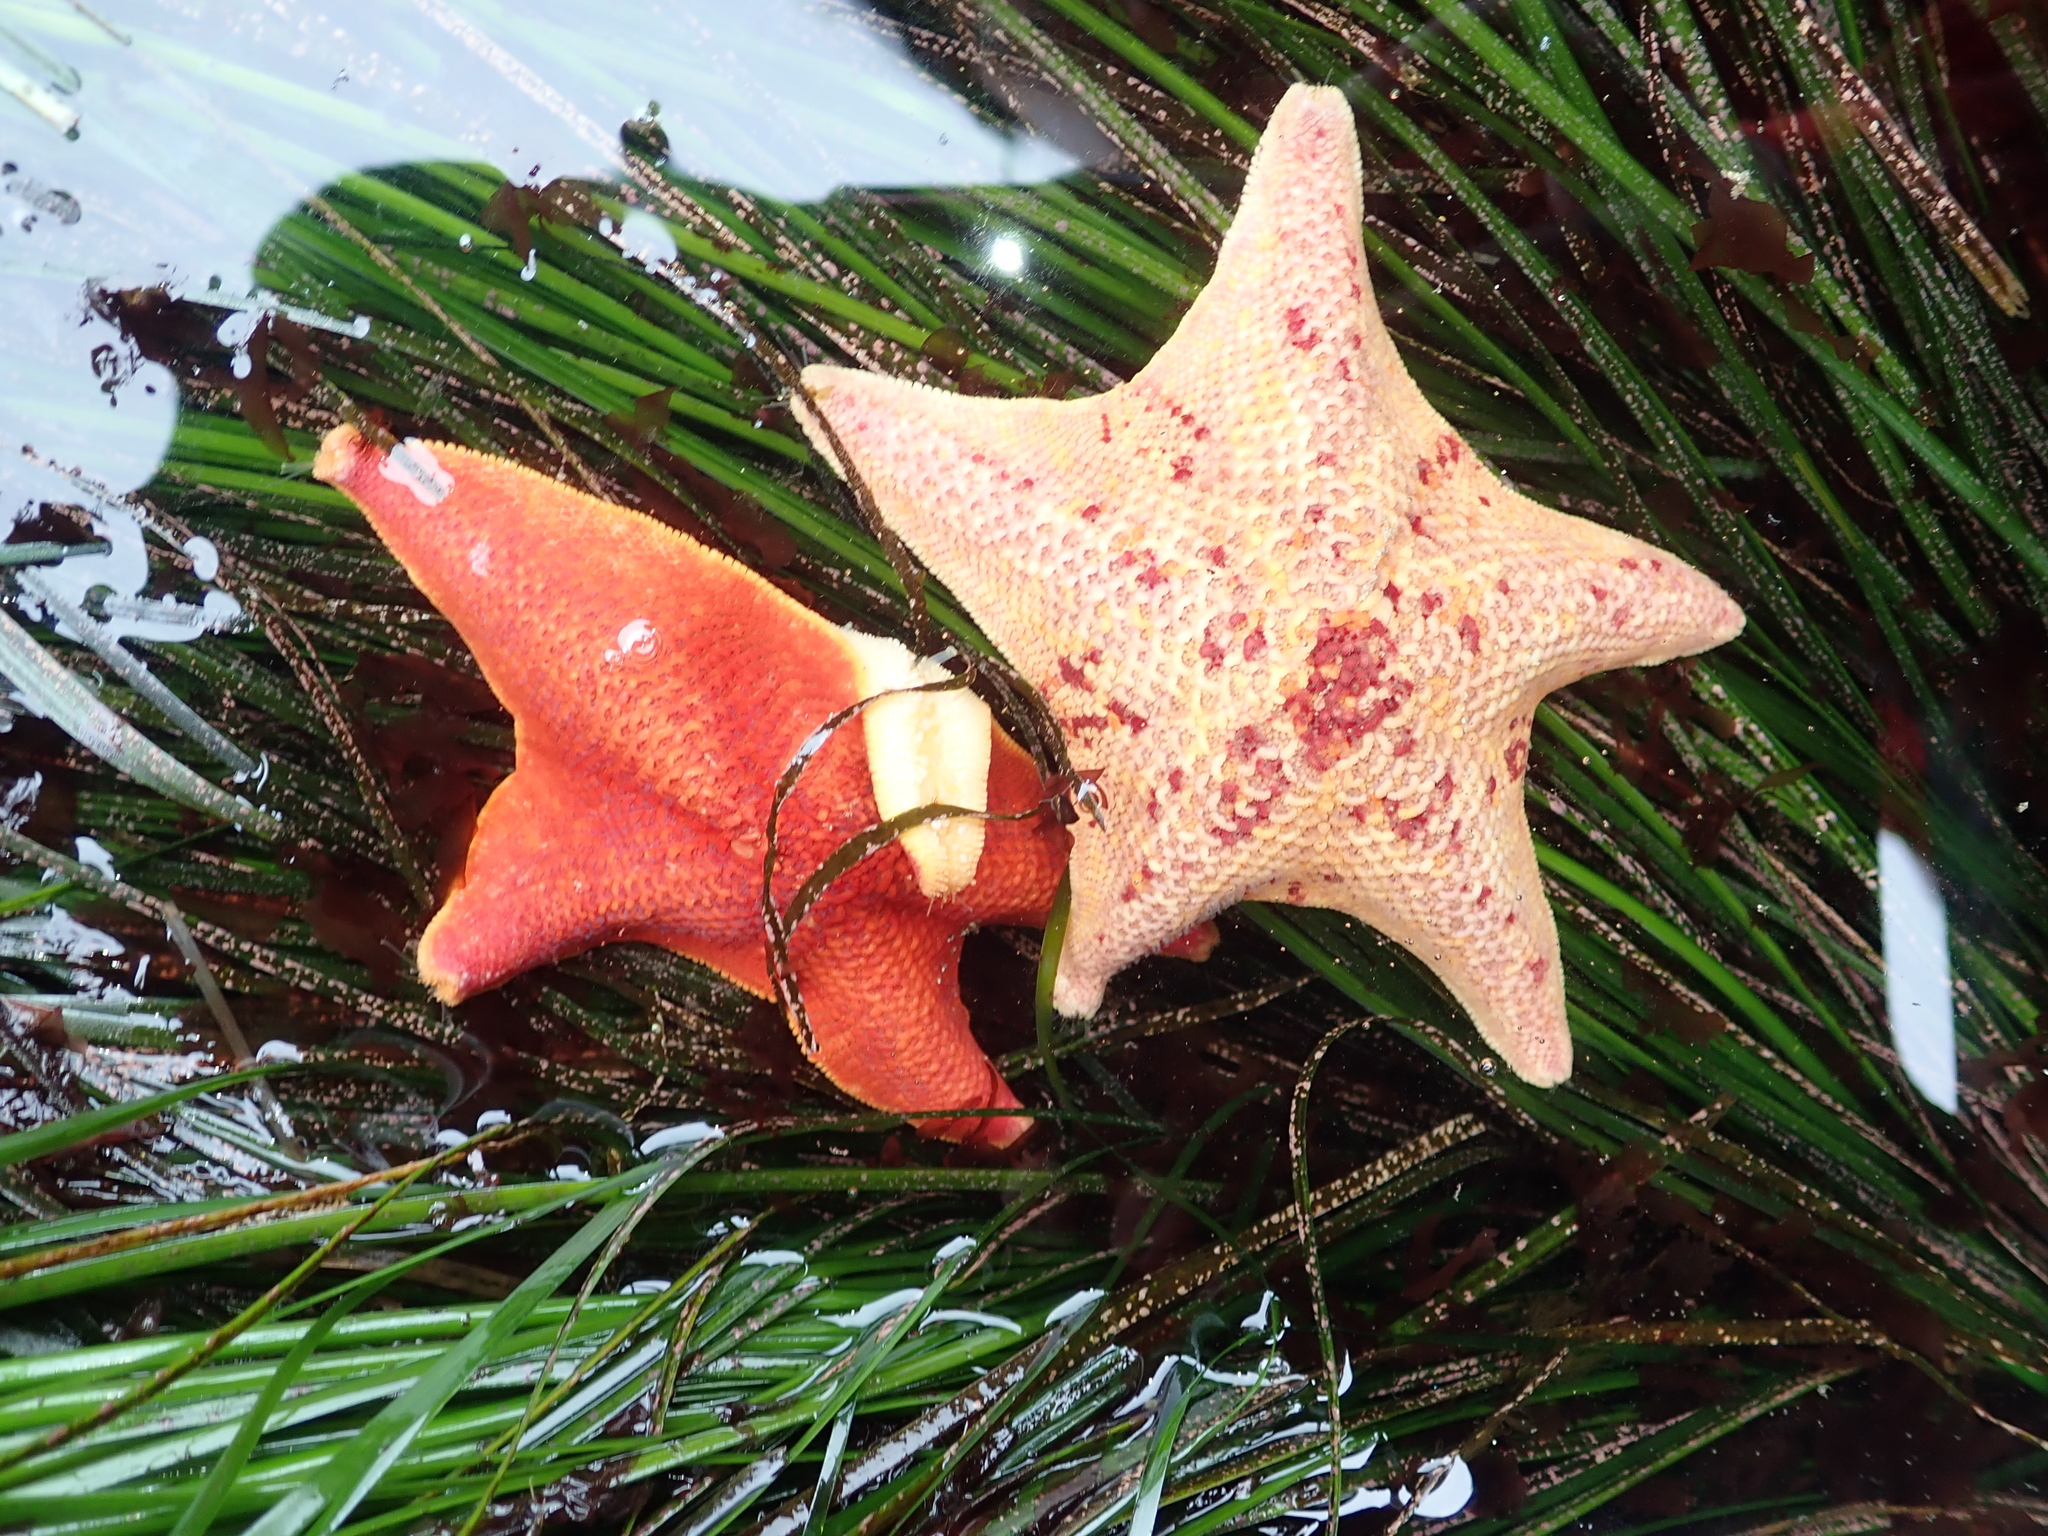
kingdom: Animalia
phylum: Echinodermata
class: Asteroidea
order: Valvatida
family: Asterinidae
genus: Patiria
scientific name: Patiria miniata
